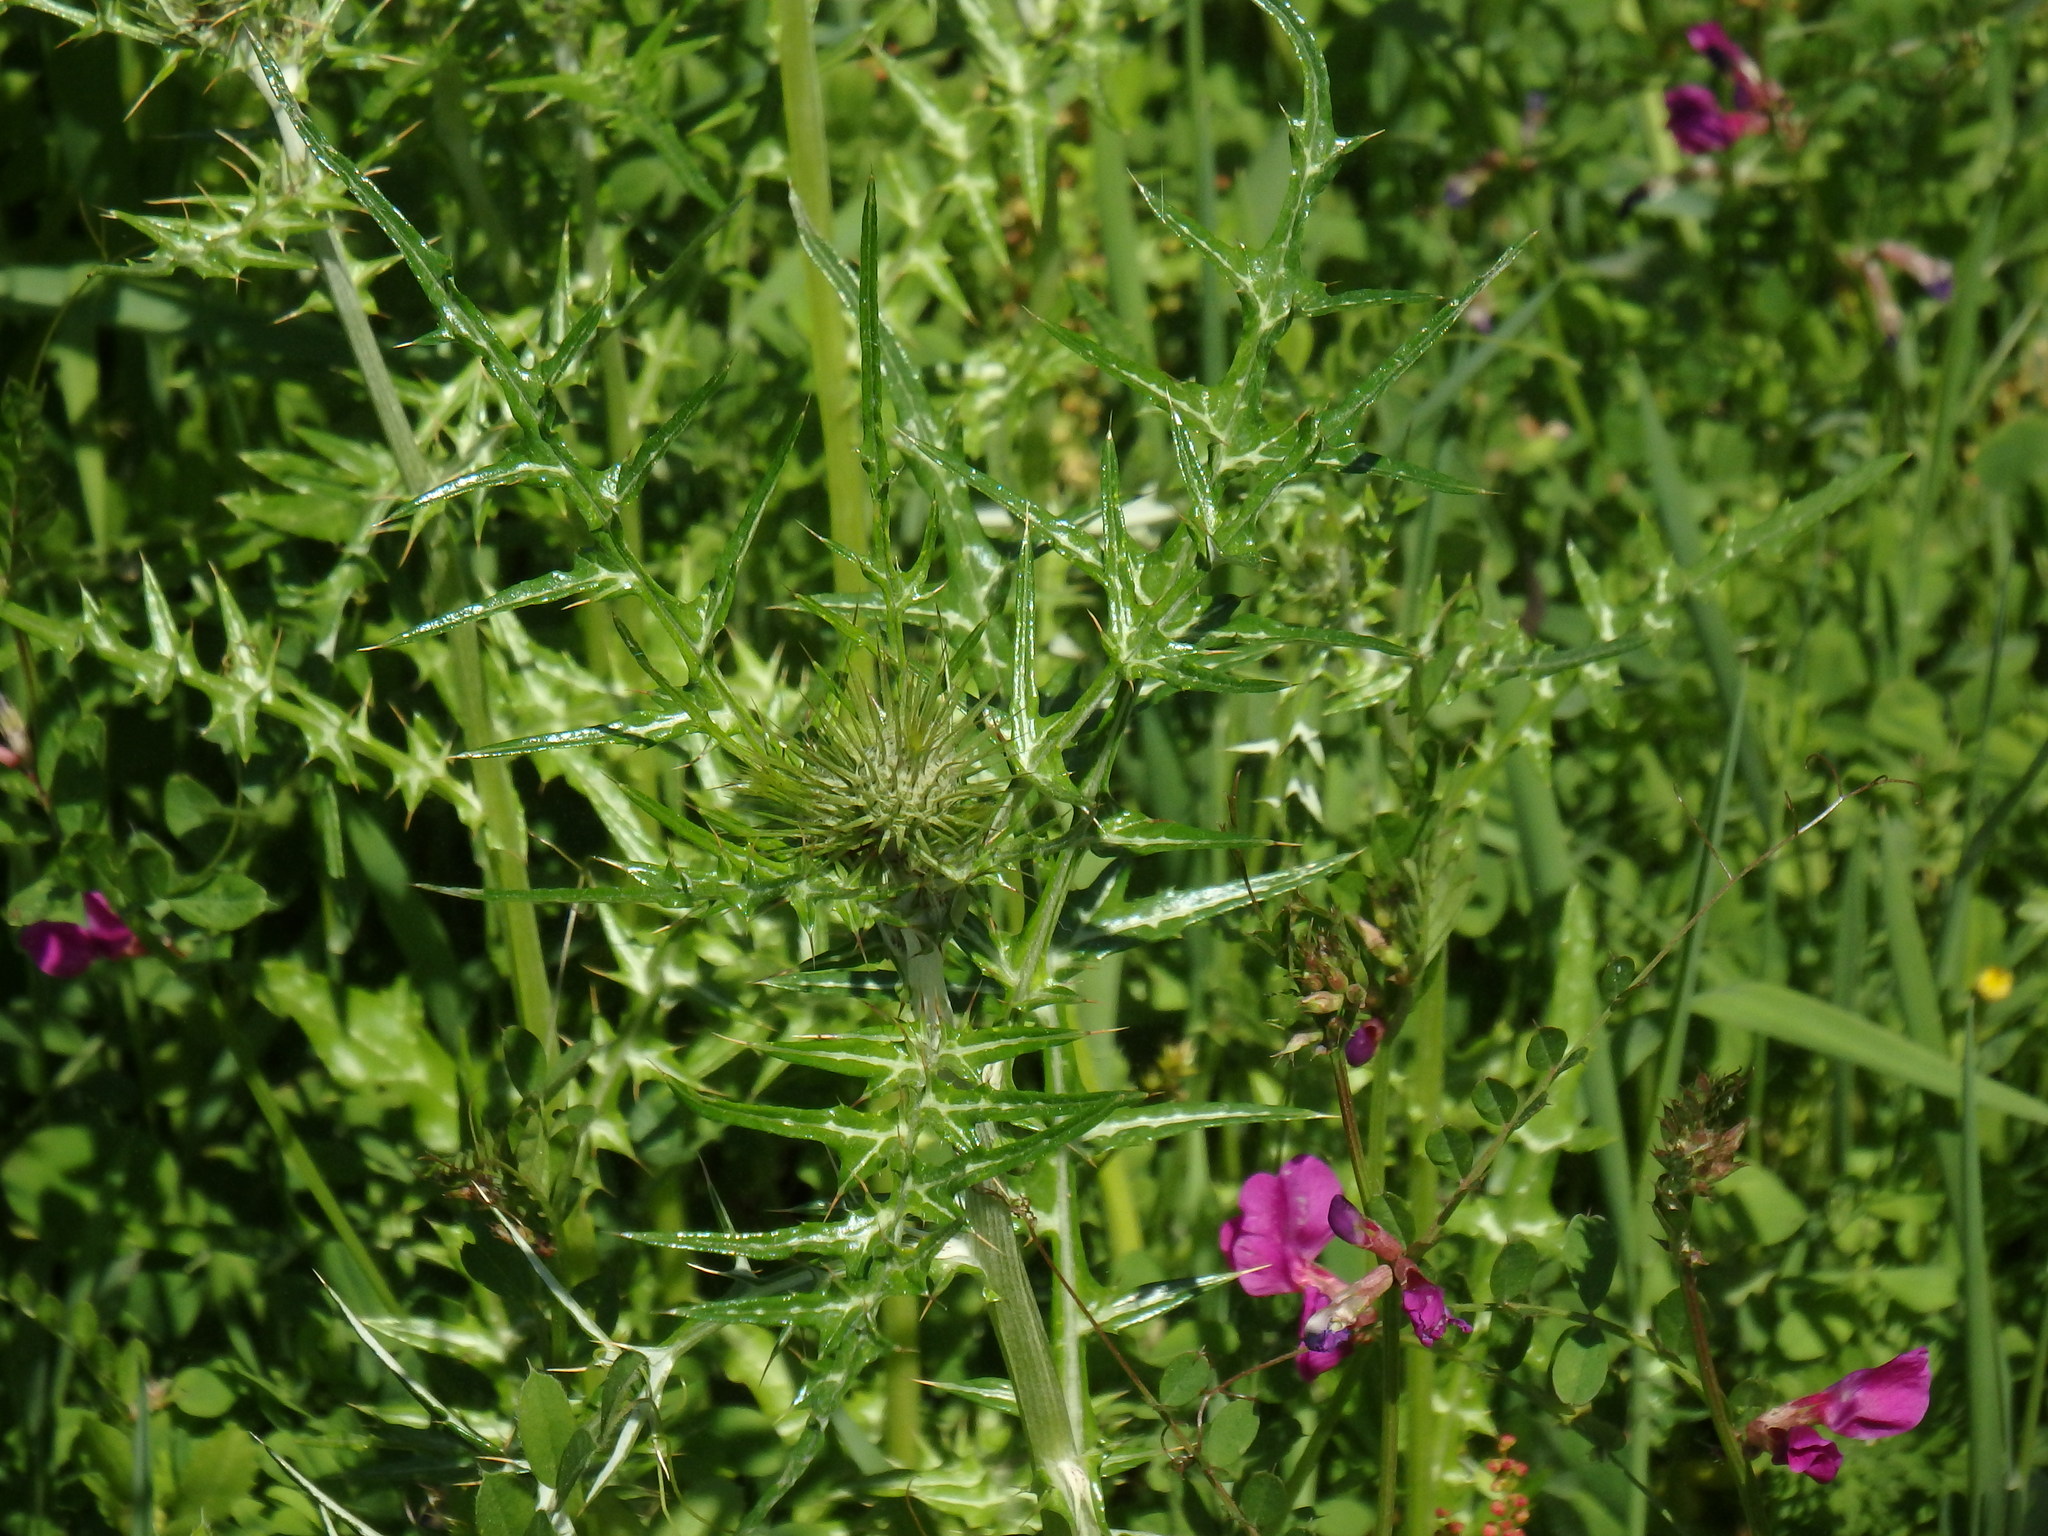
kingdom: Plantae
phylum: Tracheophyta
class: Magnoliopsida
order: Asterales
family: Asteraceae
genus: Galactites
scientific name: Galactites tomentosa
